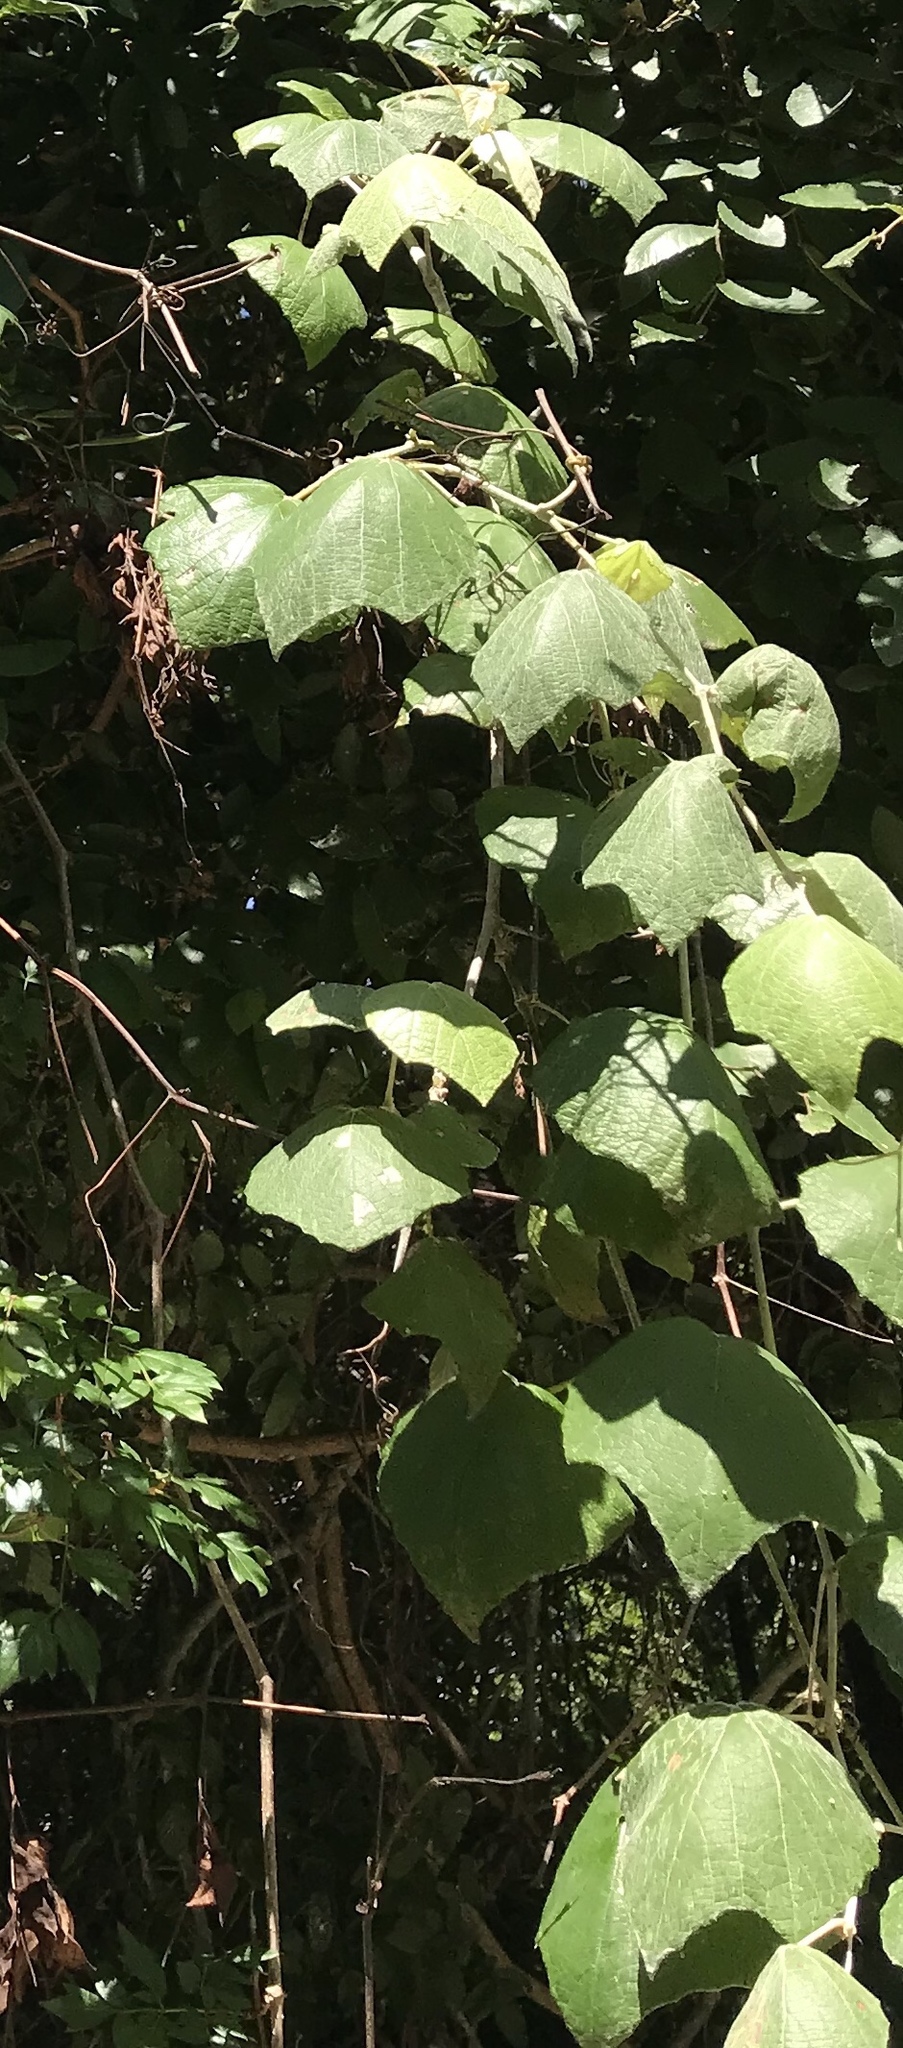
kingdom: Plantae
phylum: Tracheophyta
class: Magnoliopsida
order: Vitales
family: Vitaceae
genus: Vitis
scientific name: Vitis mustangensis
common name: Mustang grape
